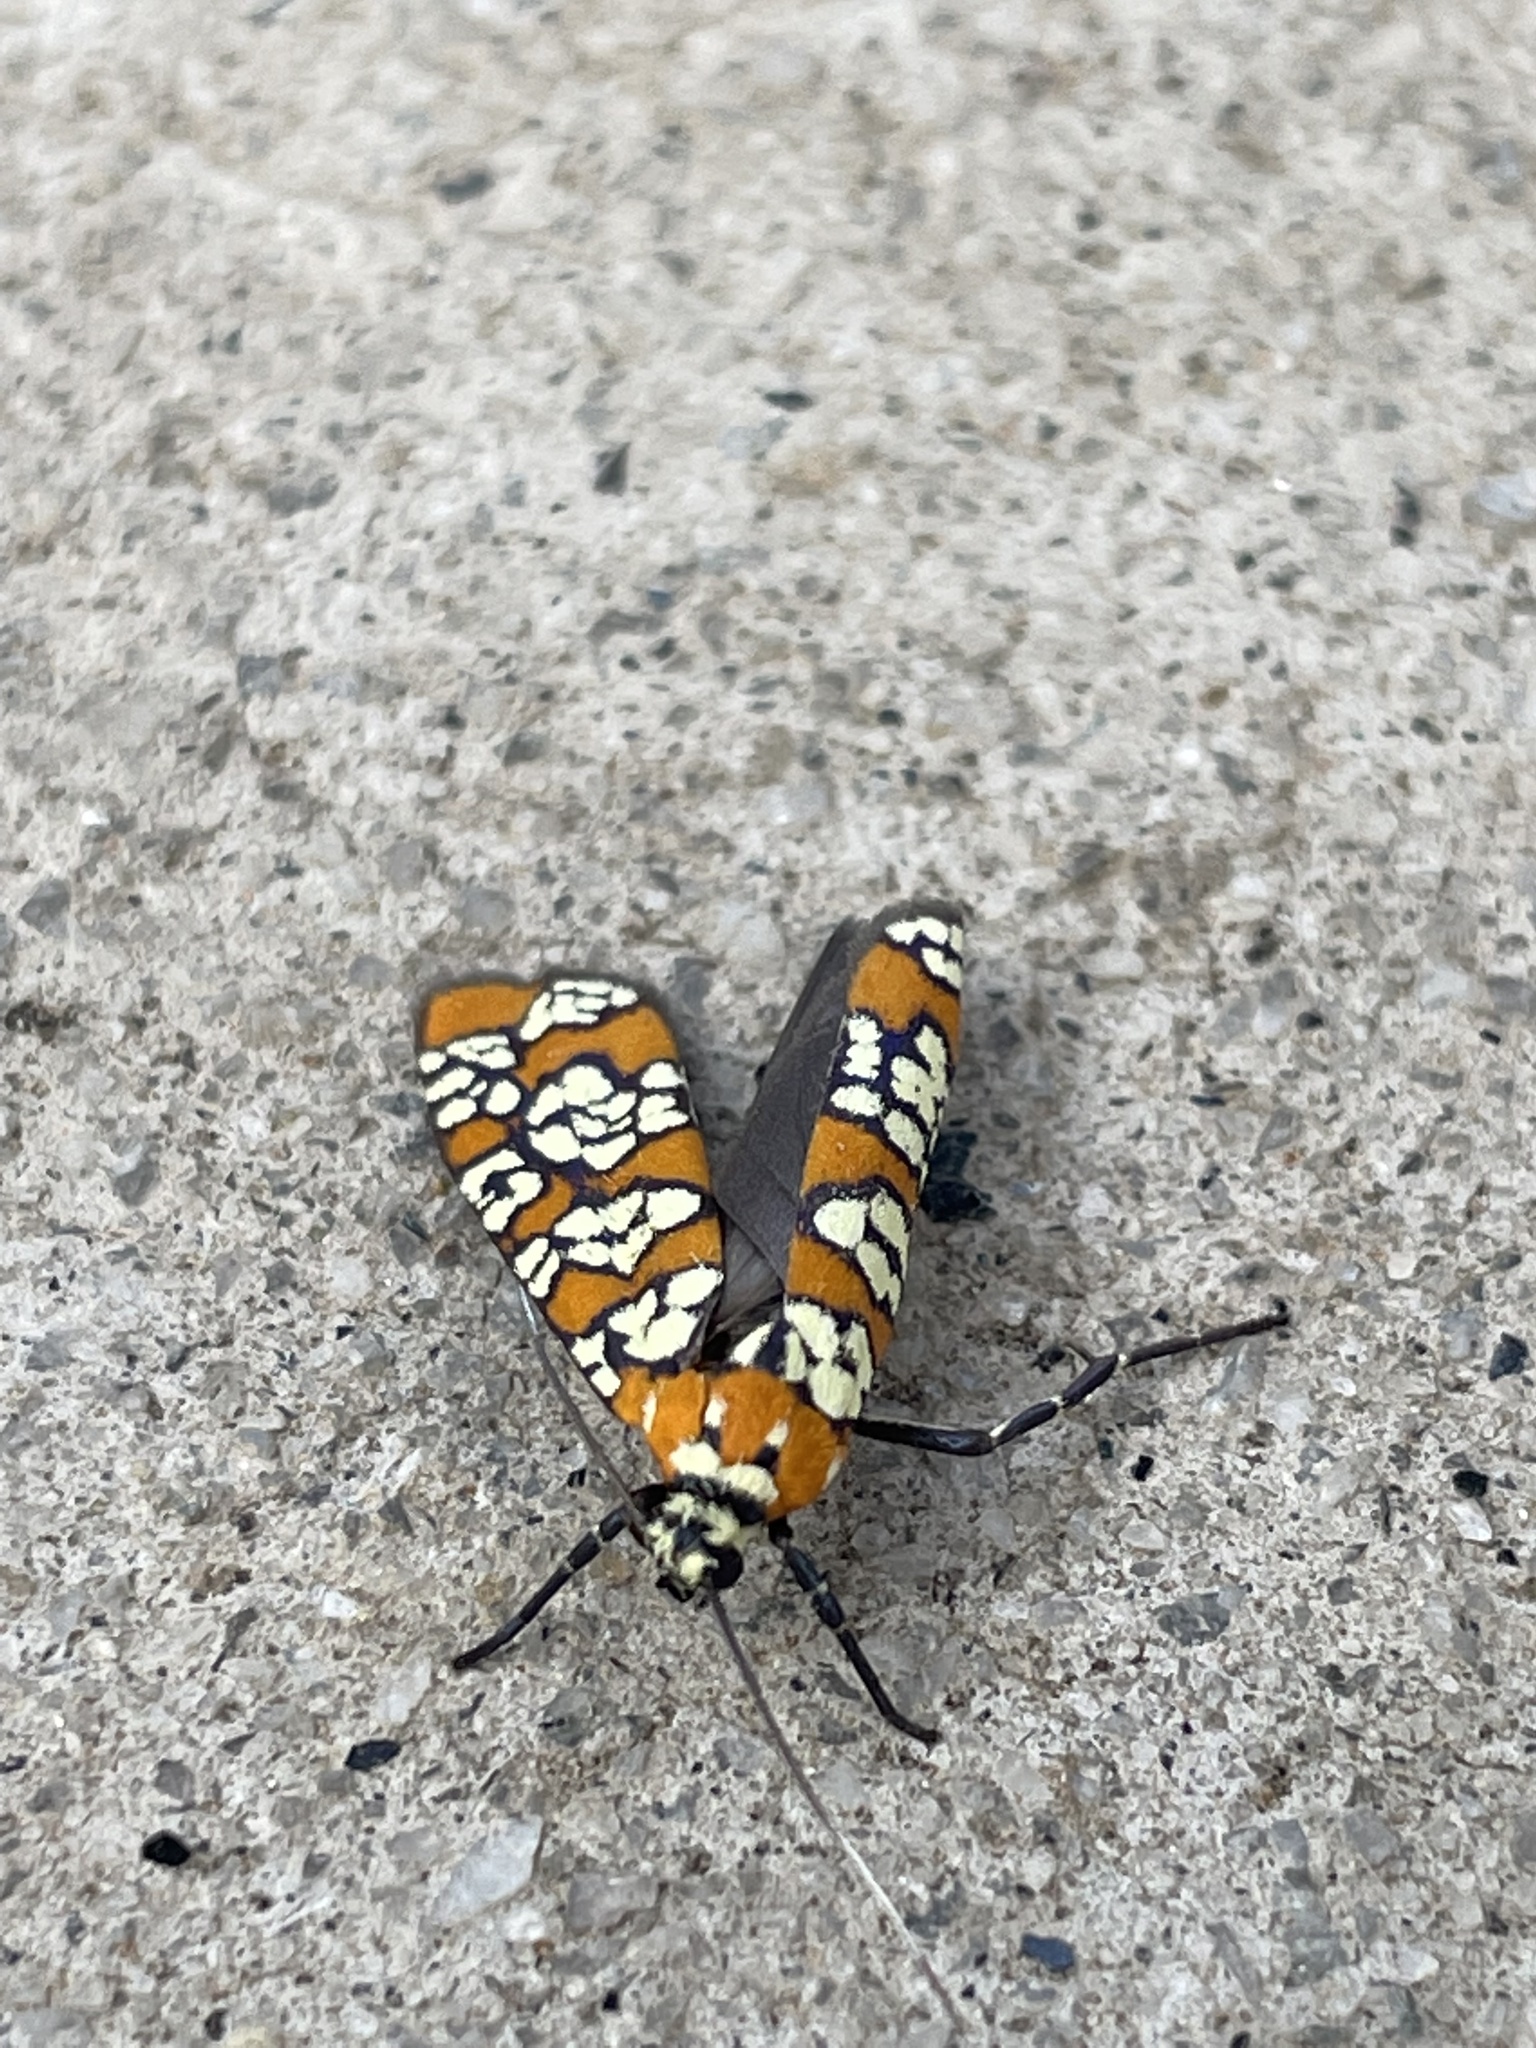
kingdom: Animalia
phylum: Arthropoda
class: Insecta
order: Lepidoptera
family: Attevidae
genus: Atteva
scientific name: Atteva punctella
